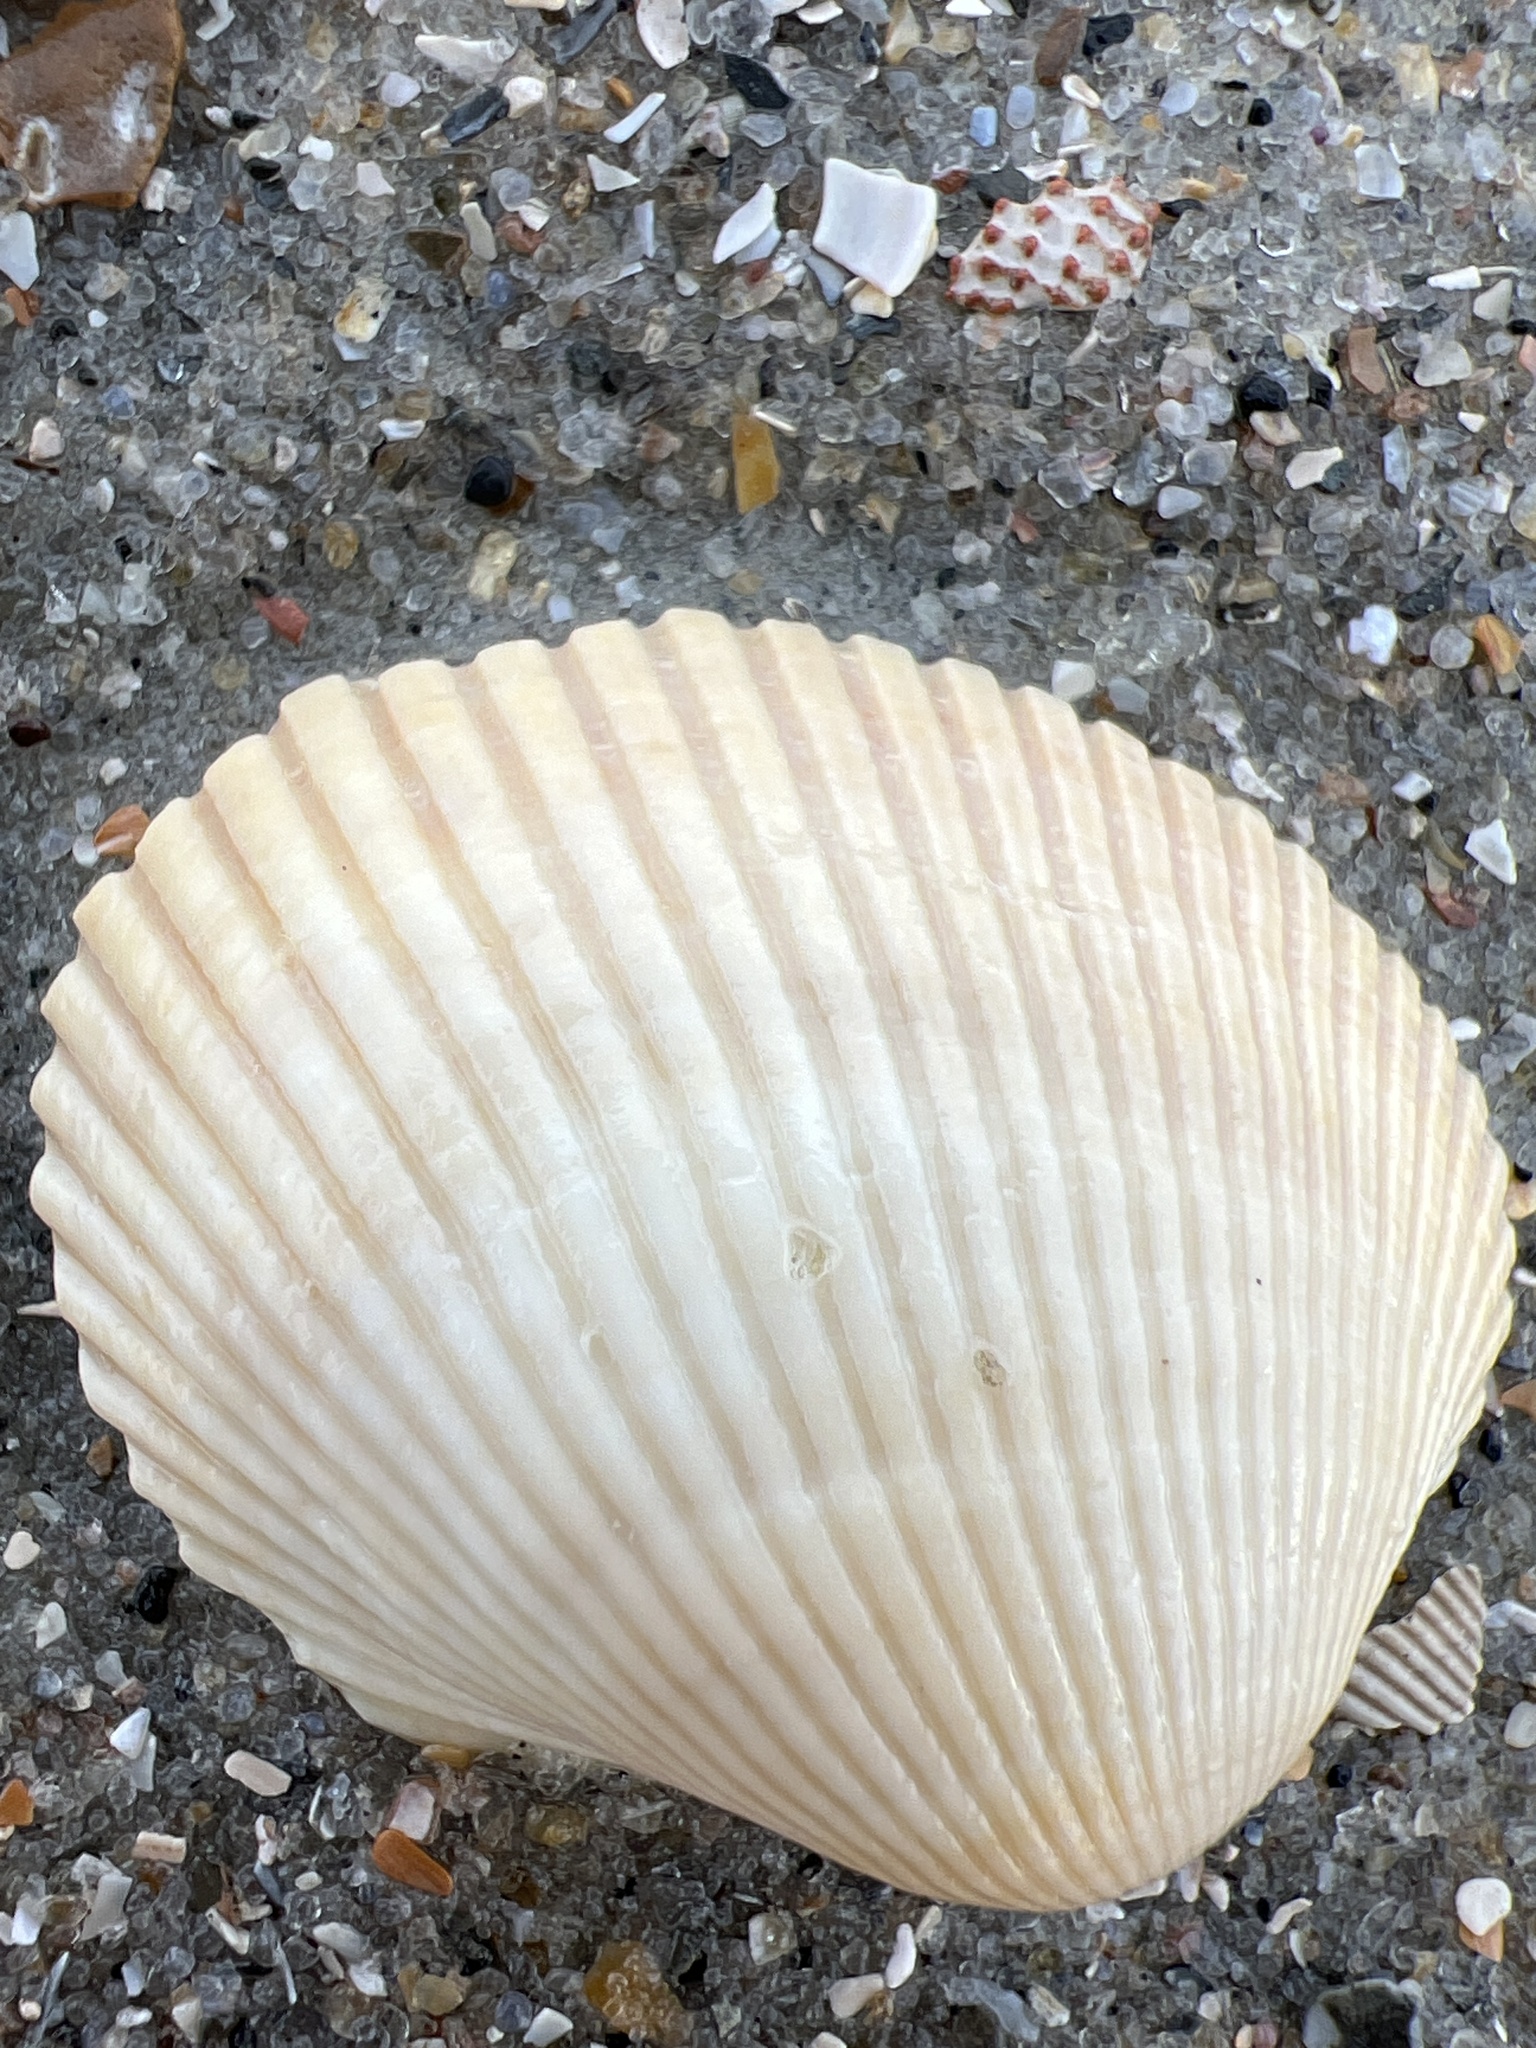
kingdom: Animalia
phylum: Mollusca
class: Bivalvia
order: Arcida
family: Arcidae
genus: Lunarca
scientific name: Lunarca ovalis
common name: Blood ark
